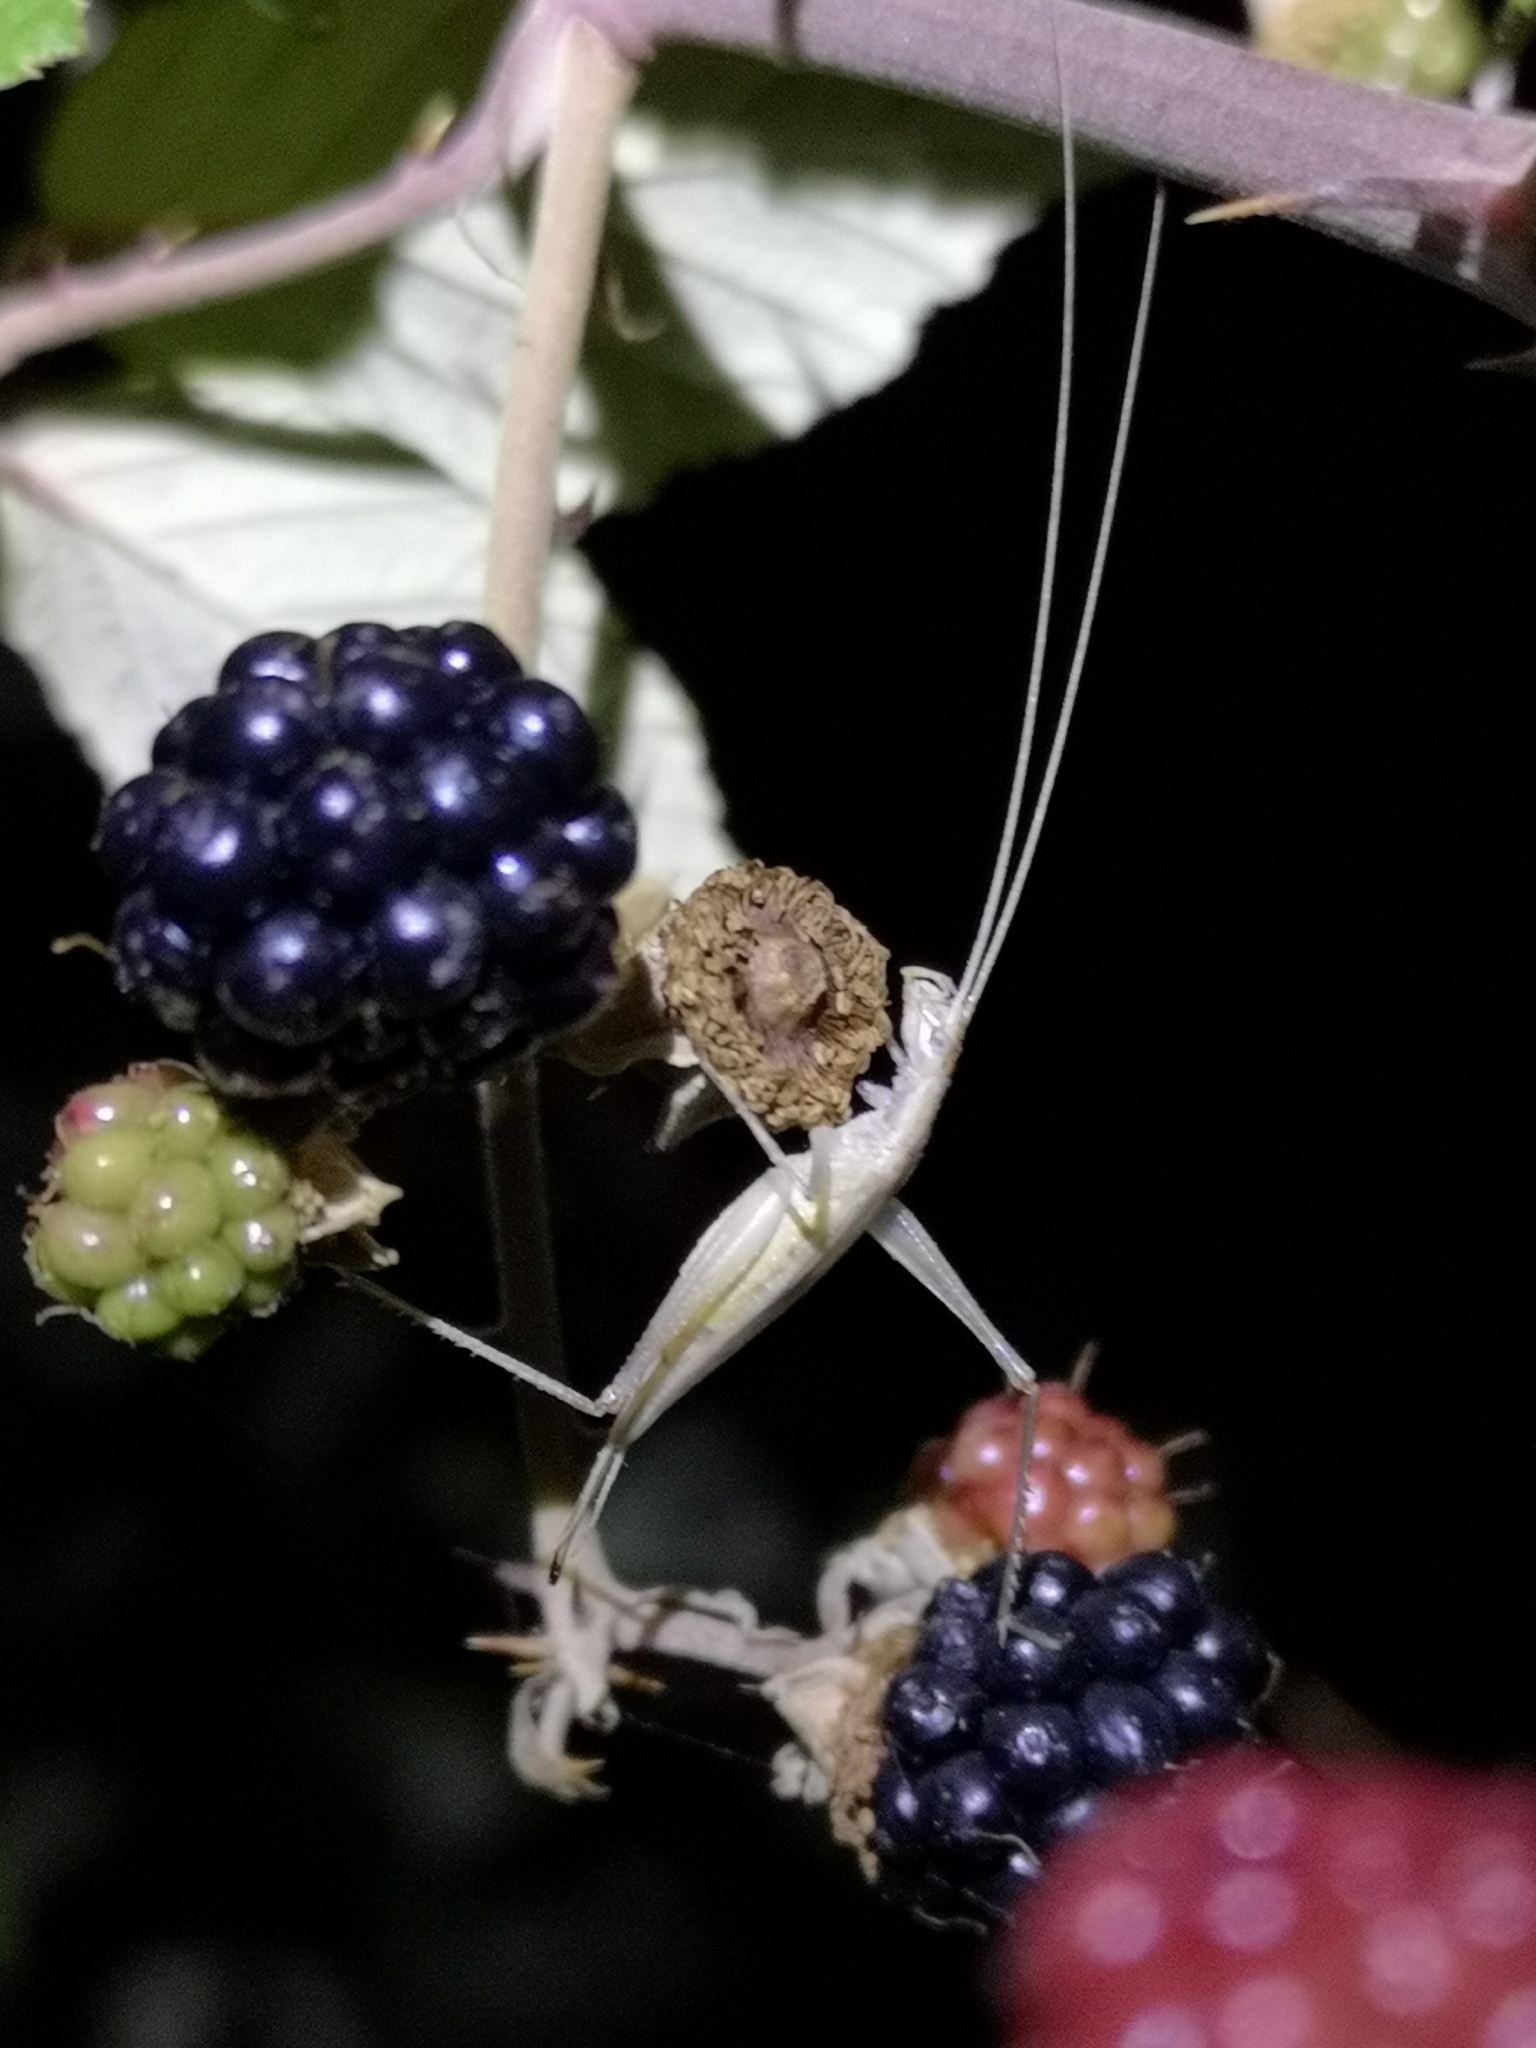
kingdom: Animalia
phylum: Arthropoda
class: Insecta
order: Orthoptera
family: Gryllidae
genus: Oecanthus
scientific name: Oecanthus pellucens
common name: Tree-cricket
